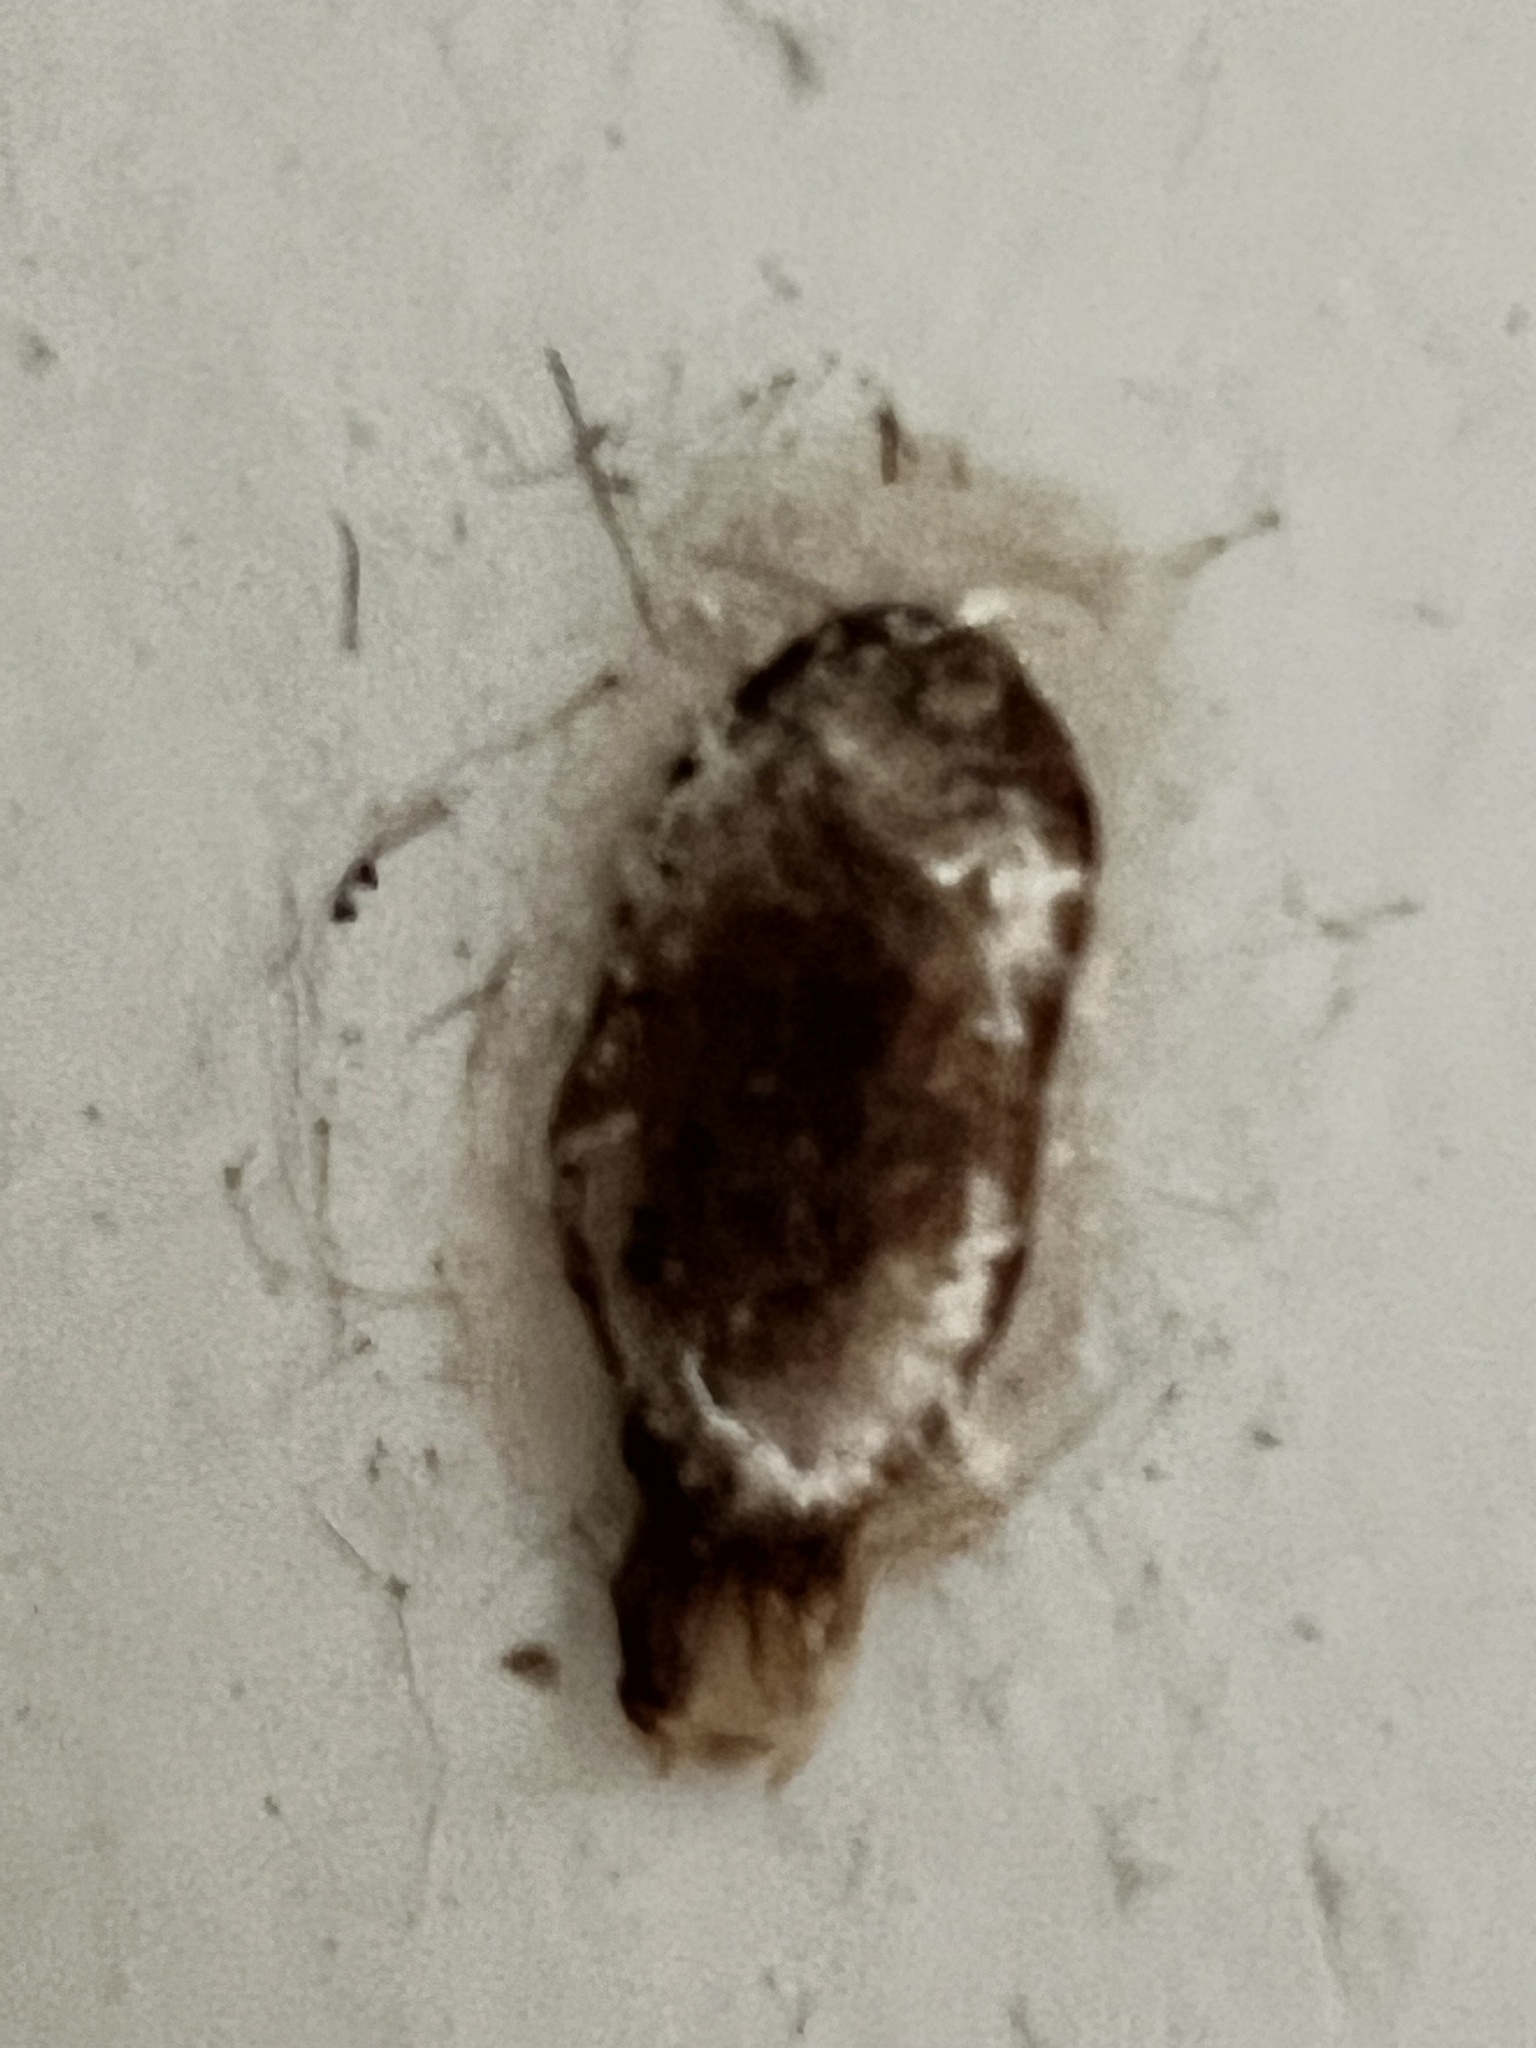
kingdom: Animalia
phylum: Arthropoda
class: Insecta
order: Lepidoptera
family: Zygaenidae
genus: Artona
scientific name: Artona martini
